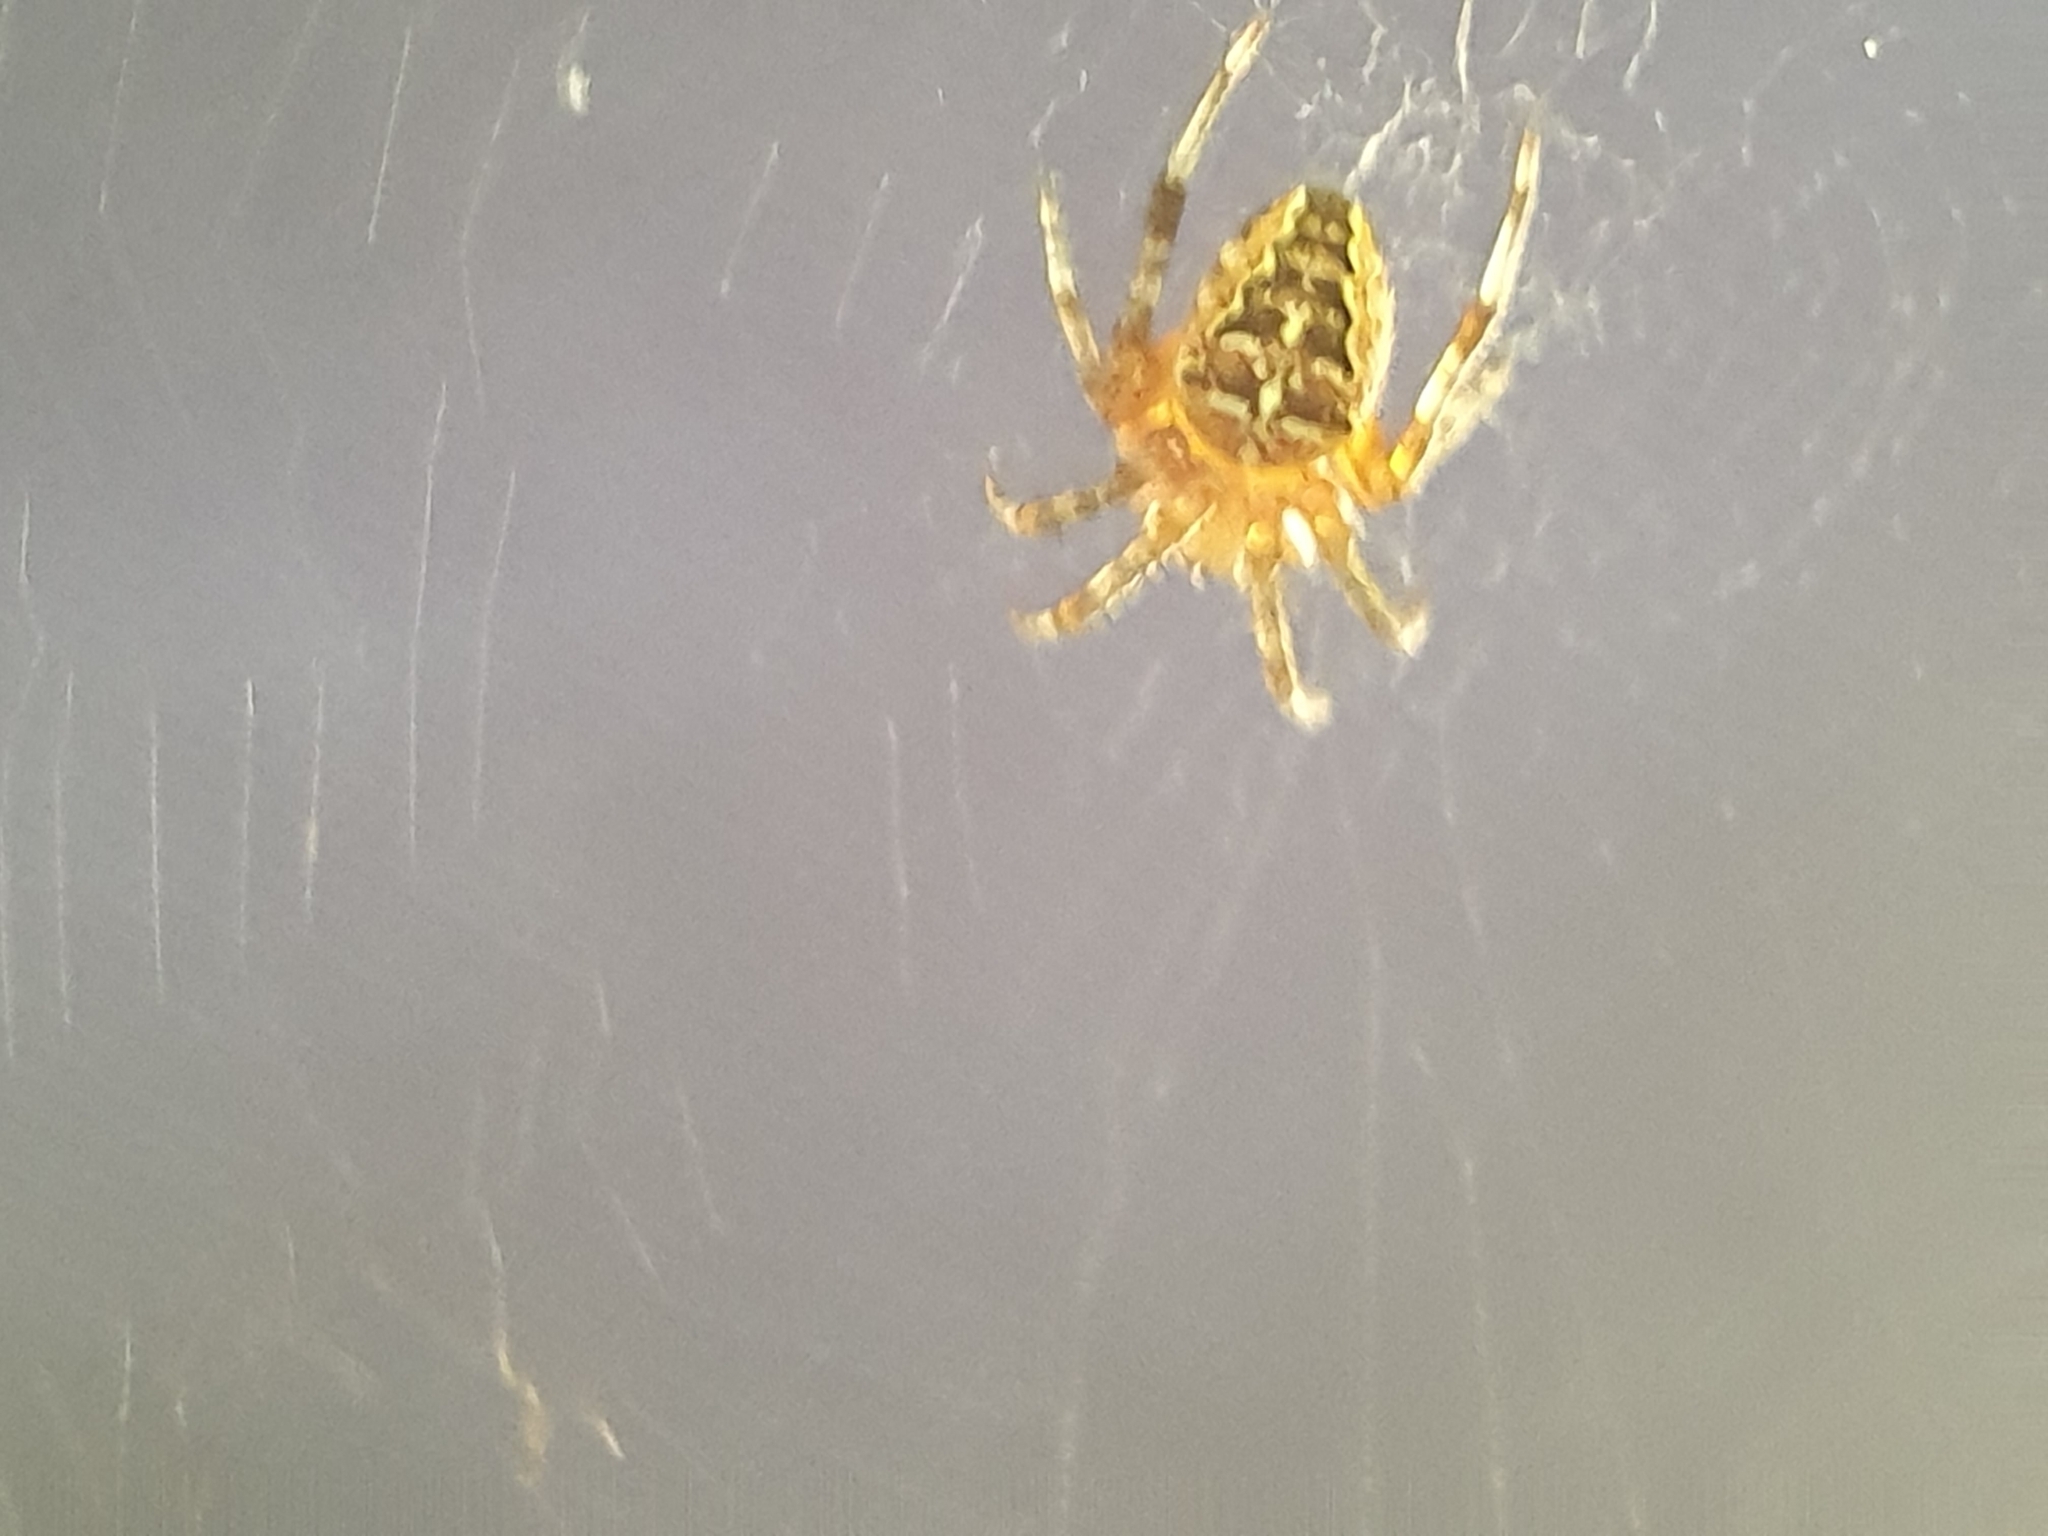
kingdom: Animalia
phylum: Arthropoda
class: Arachnida
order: Araneae
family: Araneidae
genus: Araneus
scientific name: Araneus diadematus
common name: Cross orbweaver
